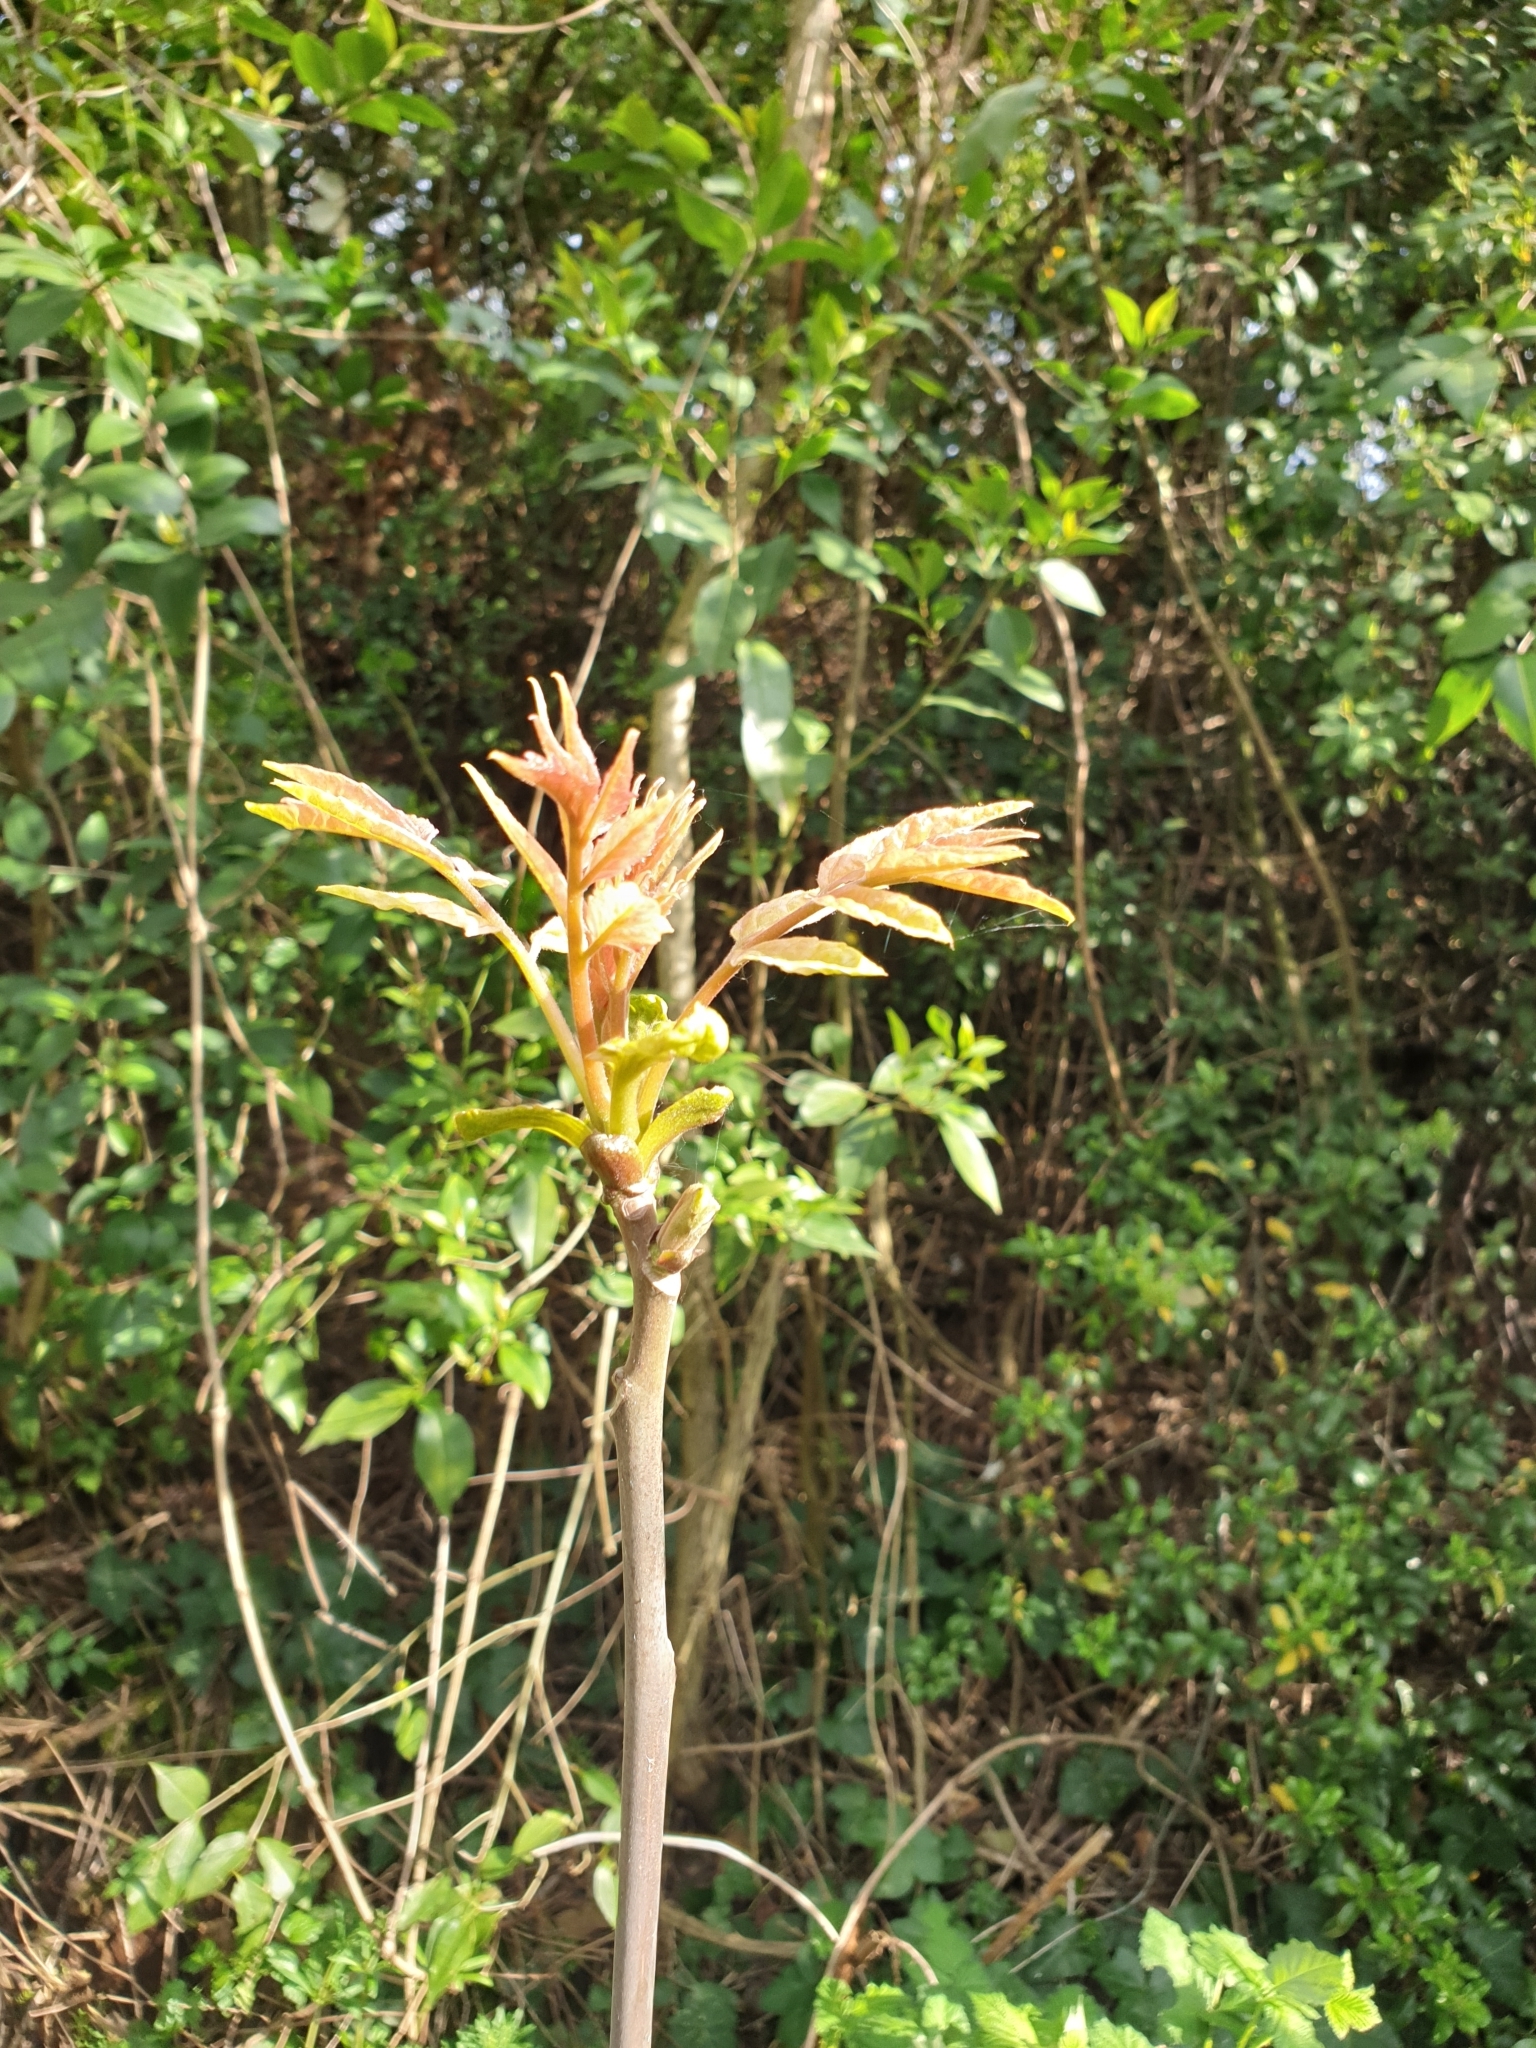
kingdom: Plantae
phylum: Tracheophyta
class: Magnoliopsida
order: Sapindales
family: Simaroubaceae
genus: Ailanthus
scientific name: Ailanthus altissima
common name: Tree-of-heaven
